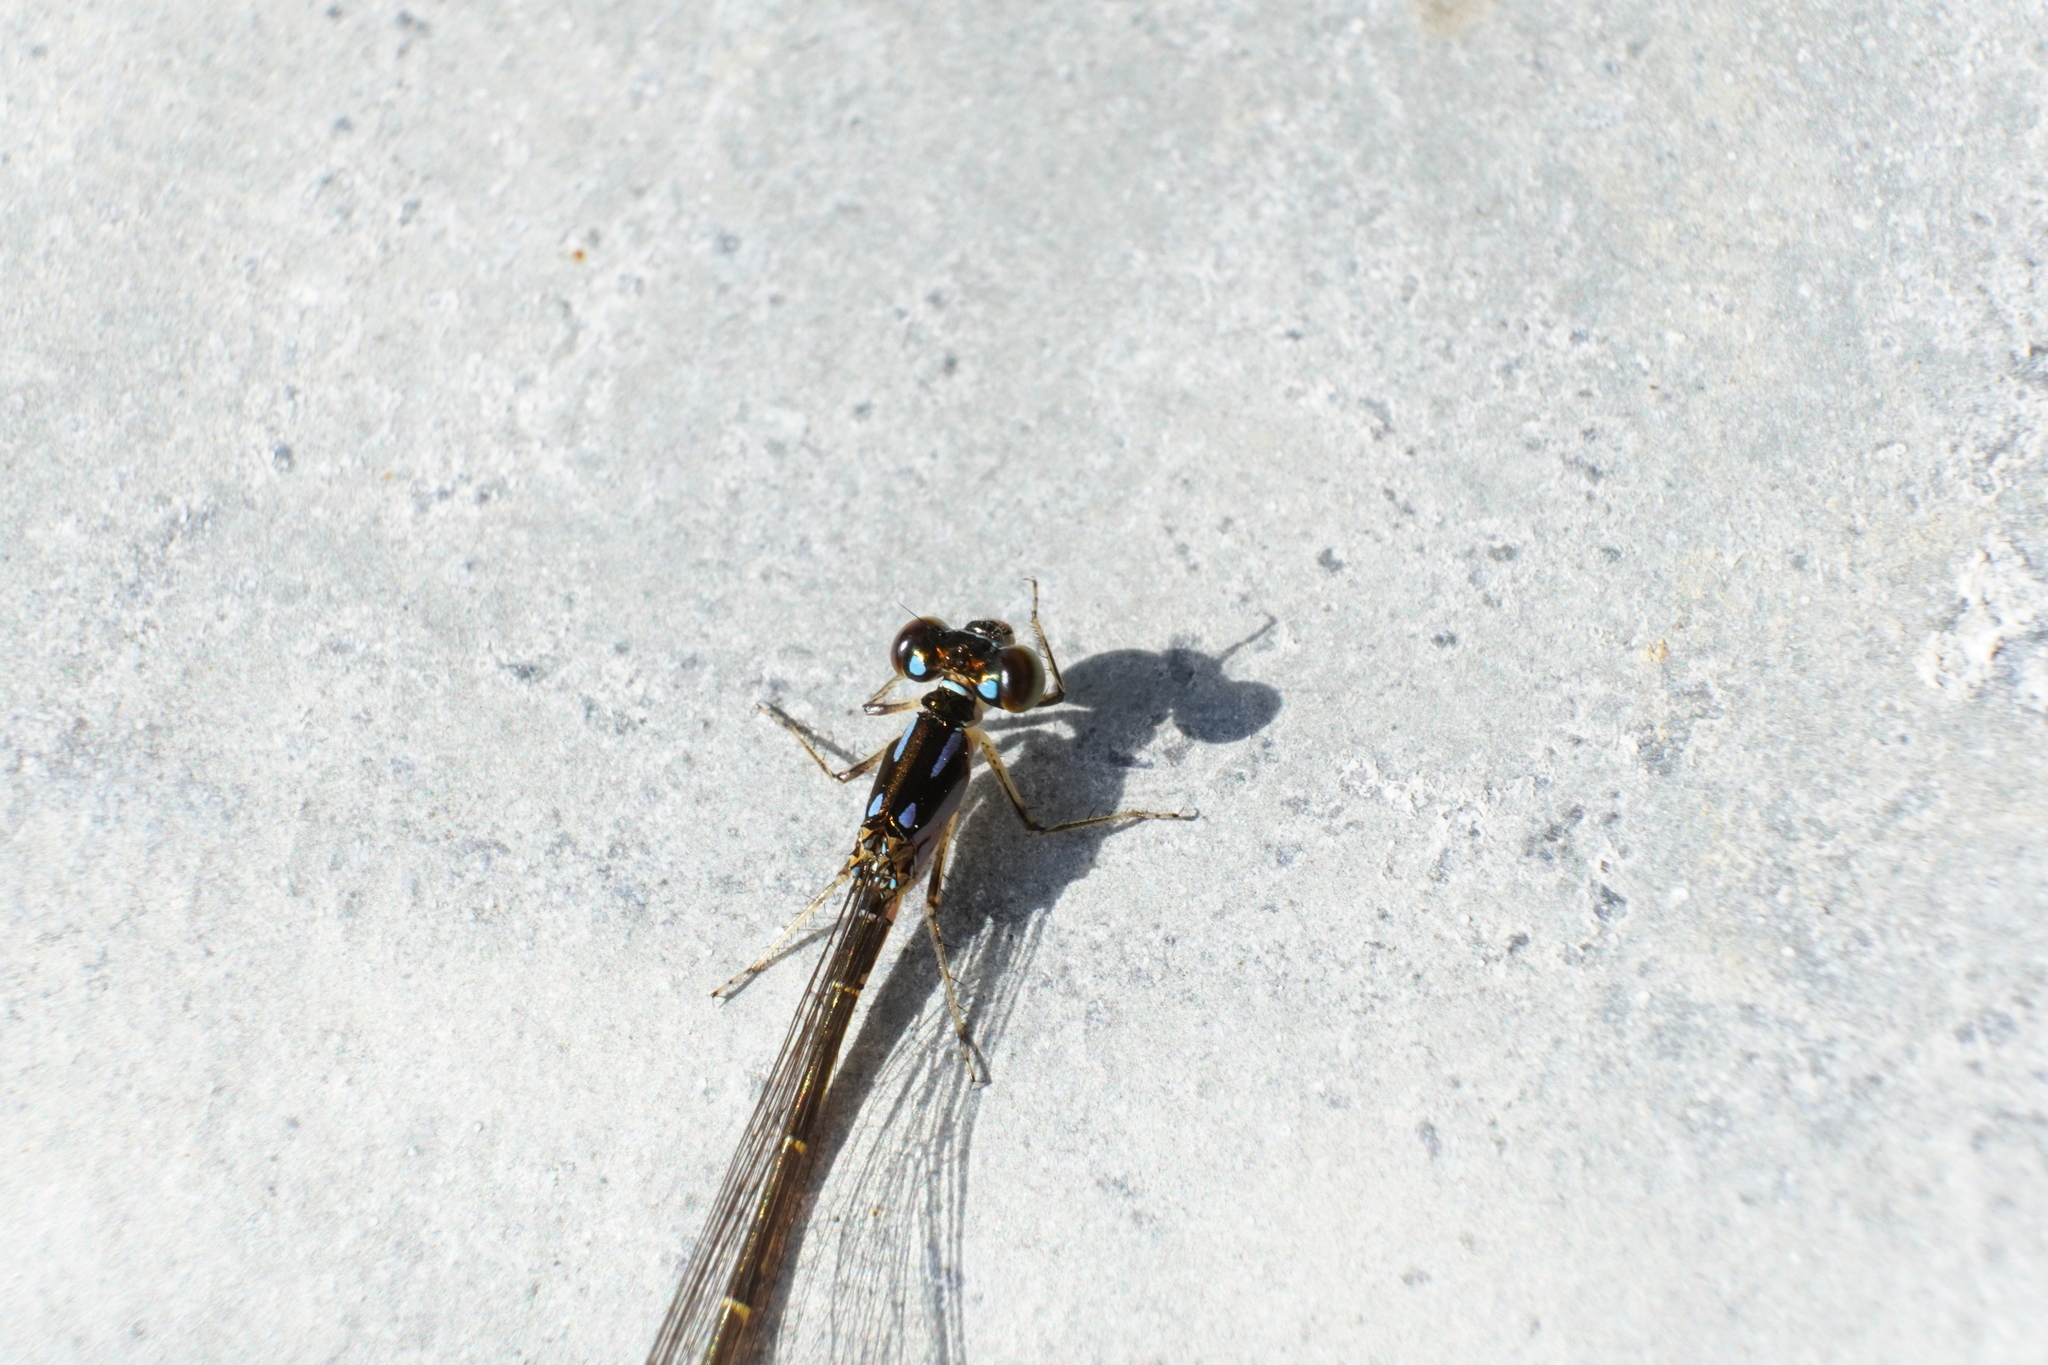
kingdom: Animalia
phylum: Arthropoda
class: Insecta
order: Odonata
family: Coenagrionidae
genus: Ischnura
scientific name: Ischnura posita
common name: Fragile forktail
